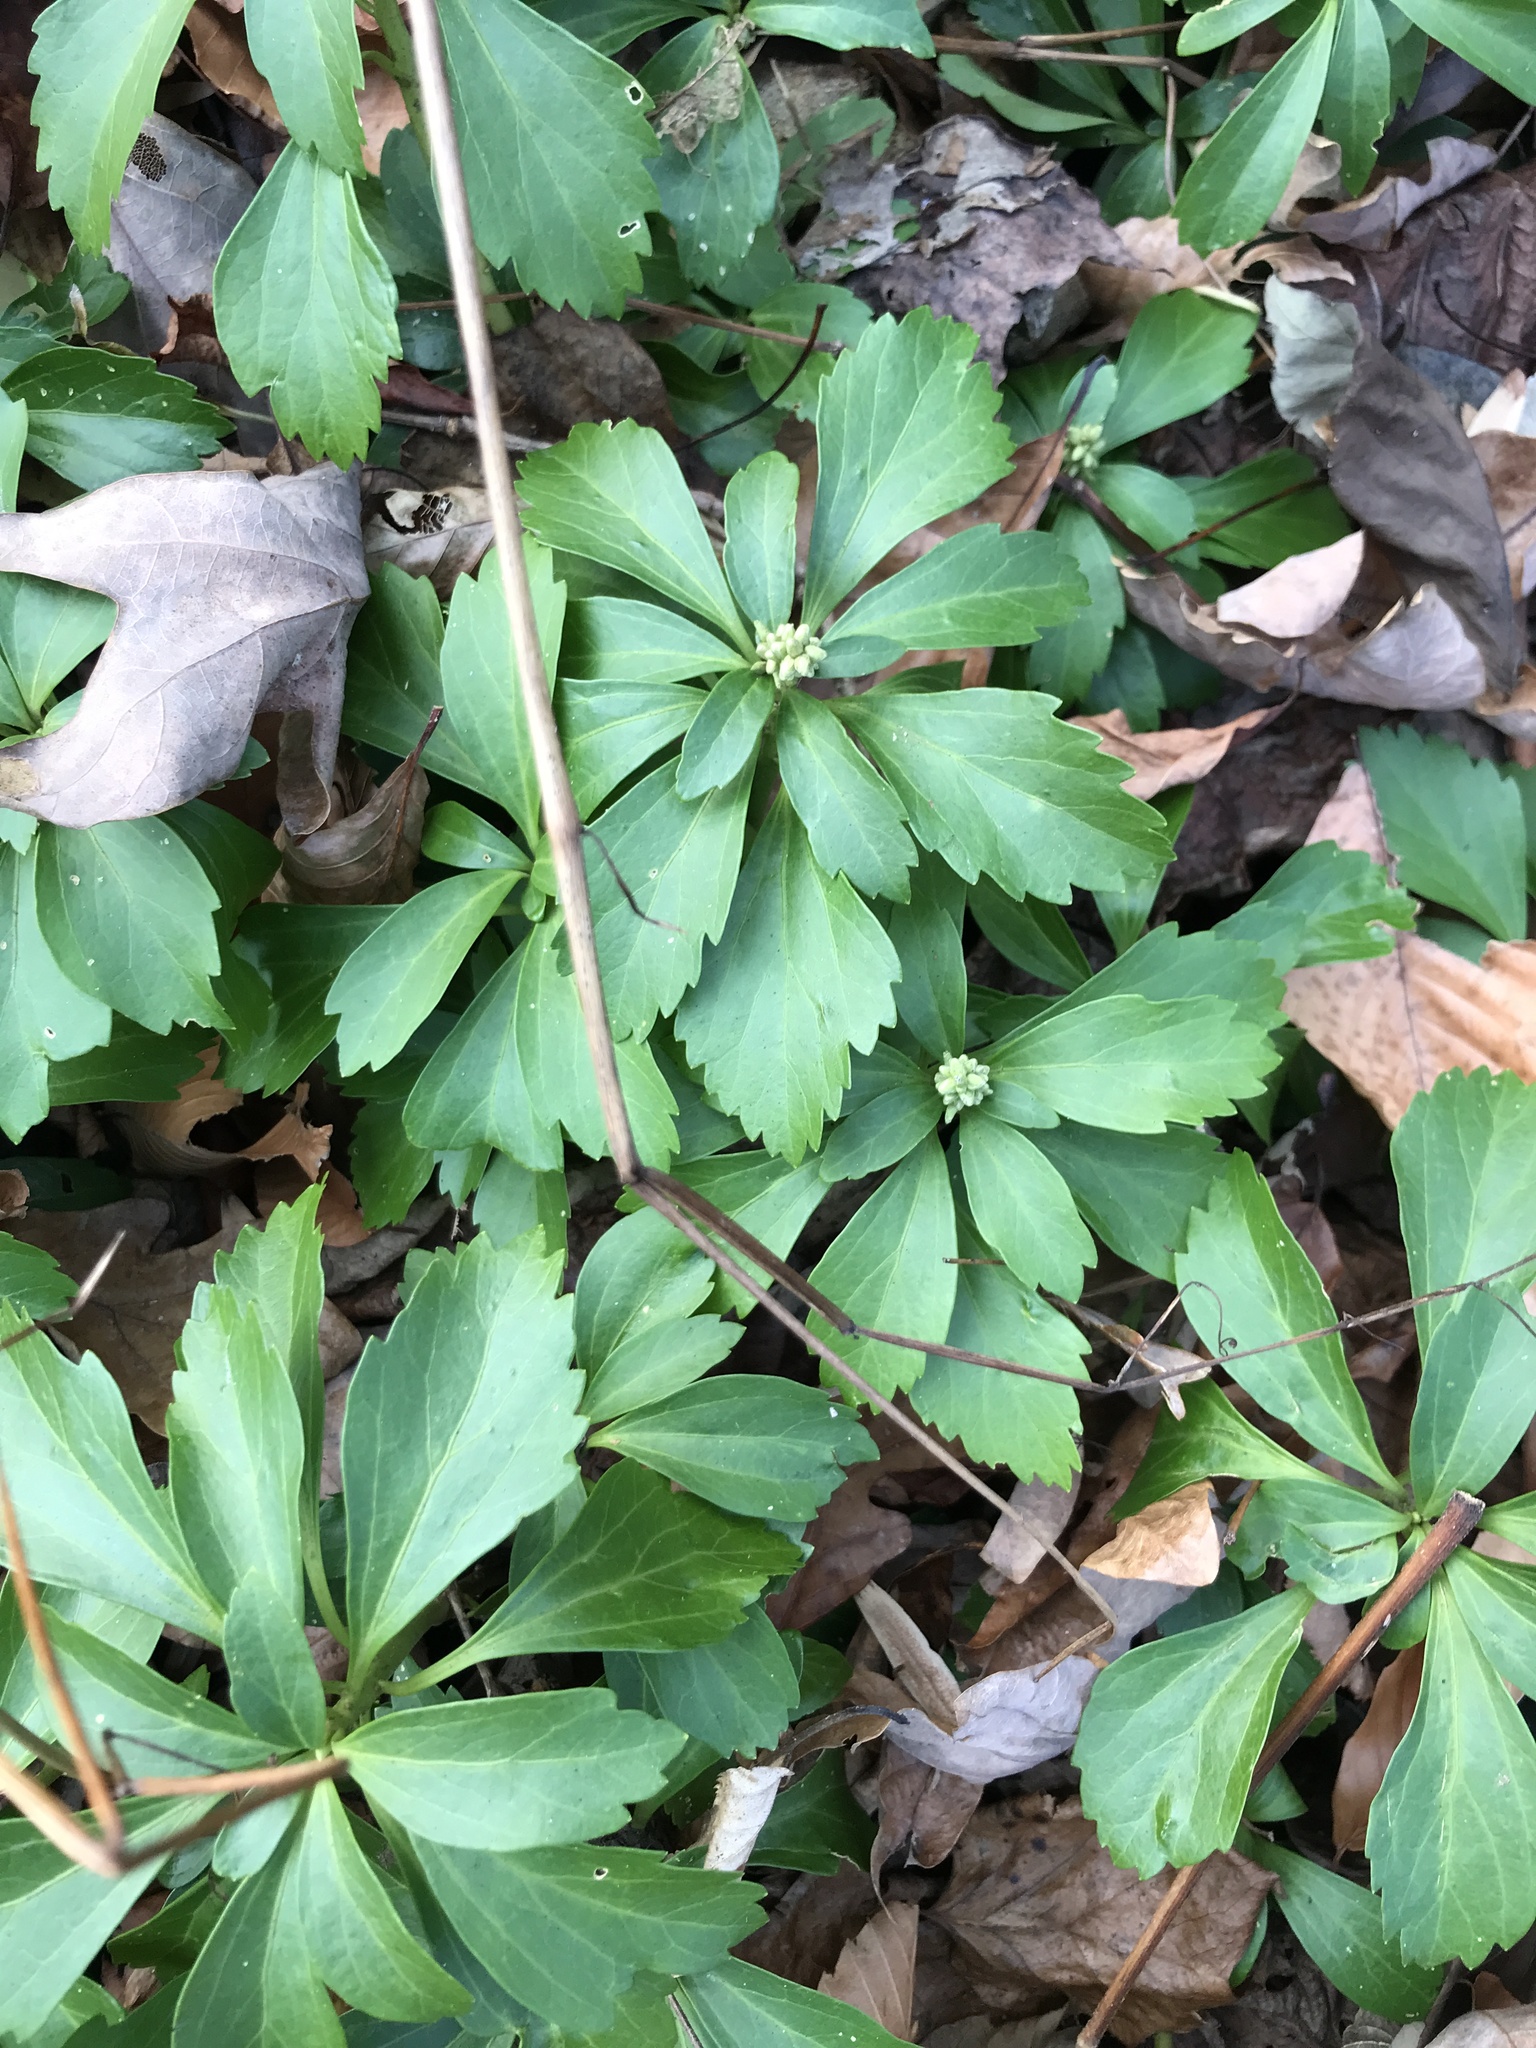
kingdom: Plantae
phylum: Tracheophyta
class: Magnoliopsida
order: Buxales
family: Buxaceae
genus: Pachysandra
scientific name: Pachysandra terminalis
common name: Japanese pachysandra
